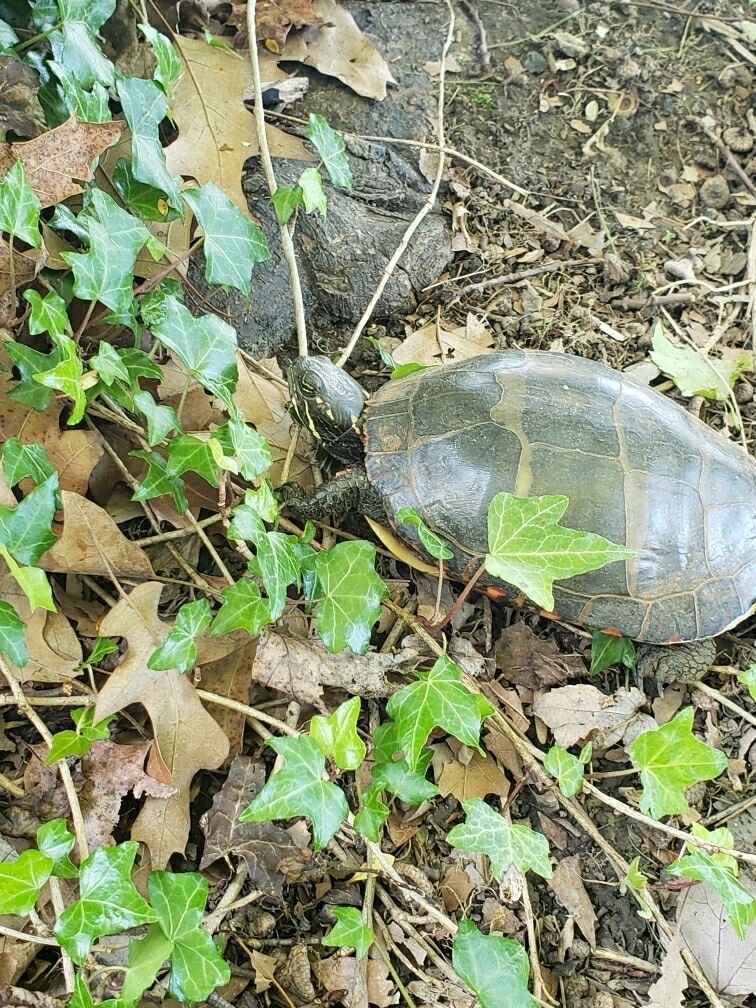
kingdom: Animalia
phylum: Chordata
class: Testudines
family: Emydidae
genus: Chrysemys
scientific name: Chrysemys picta
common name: Painted turtle
